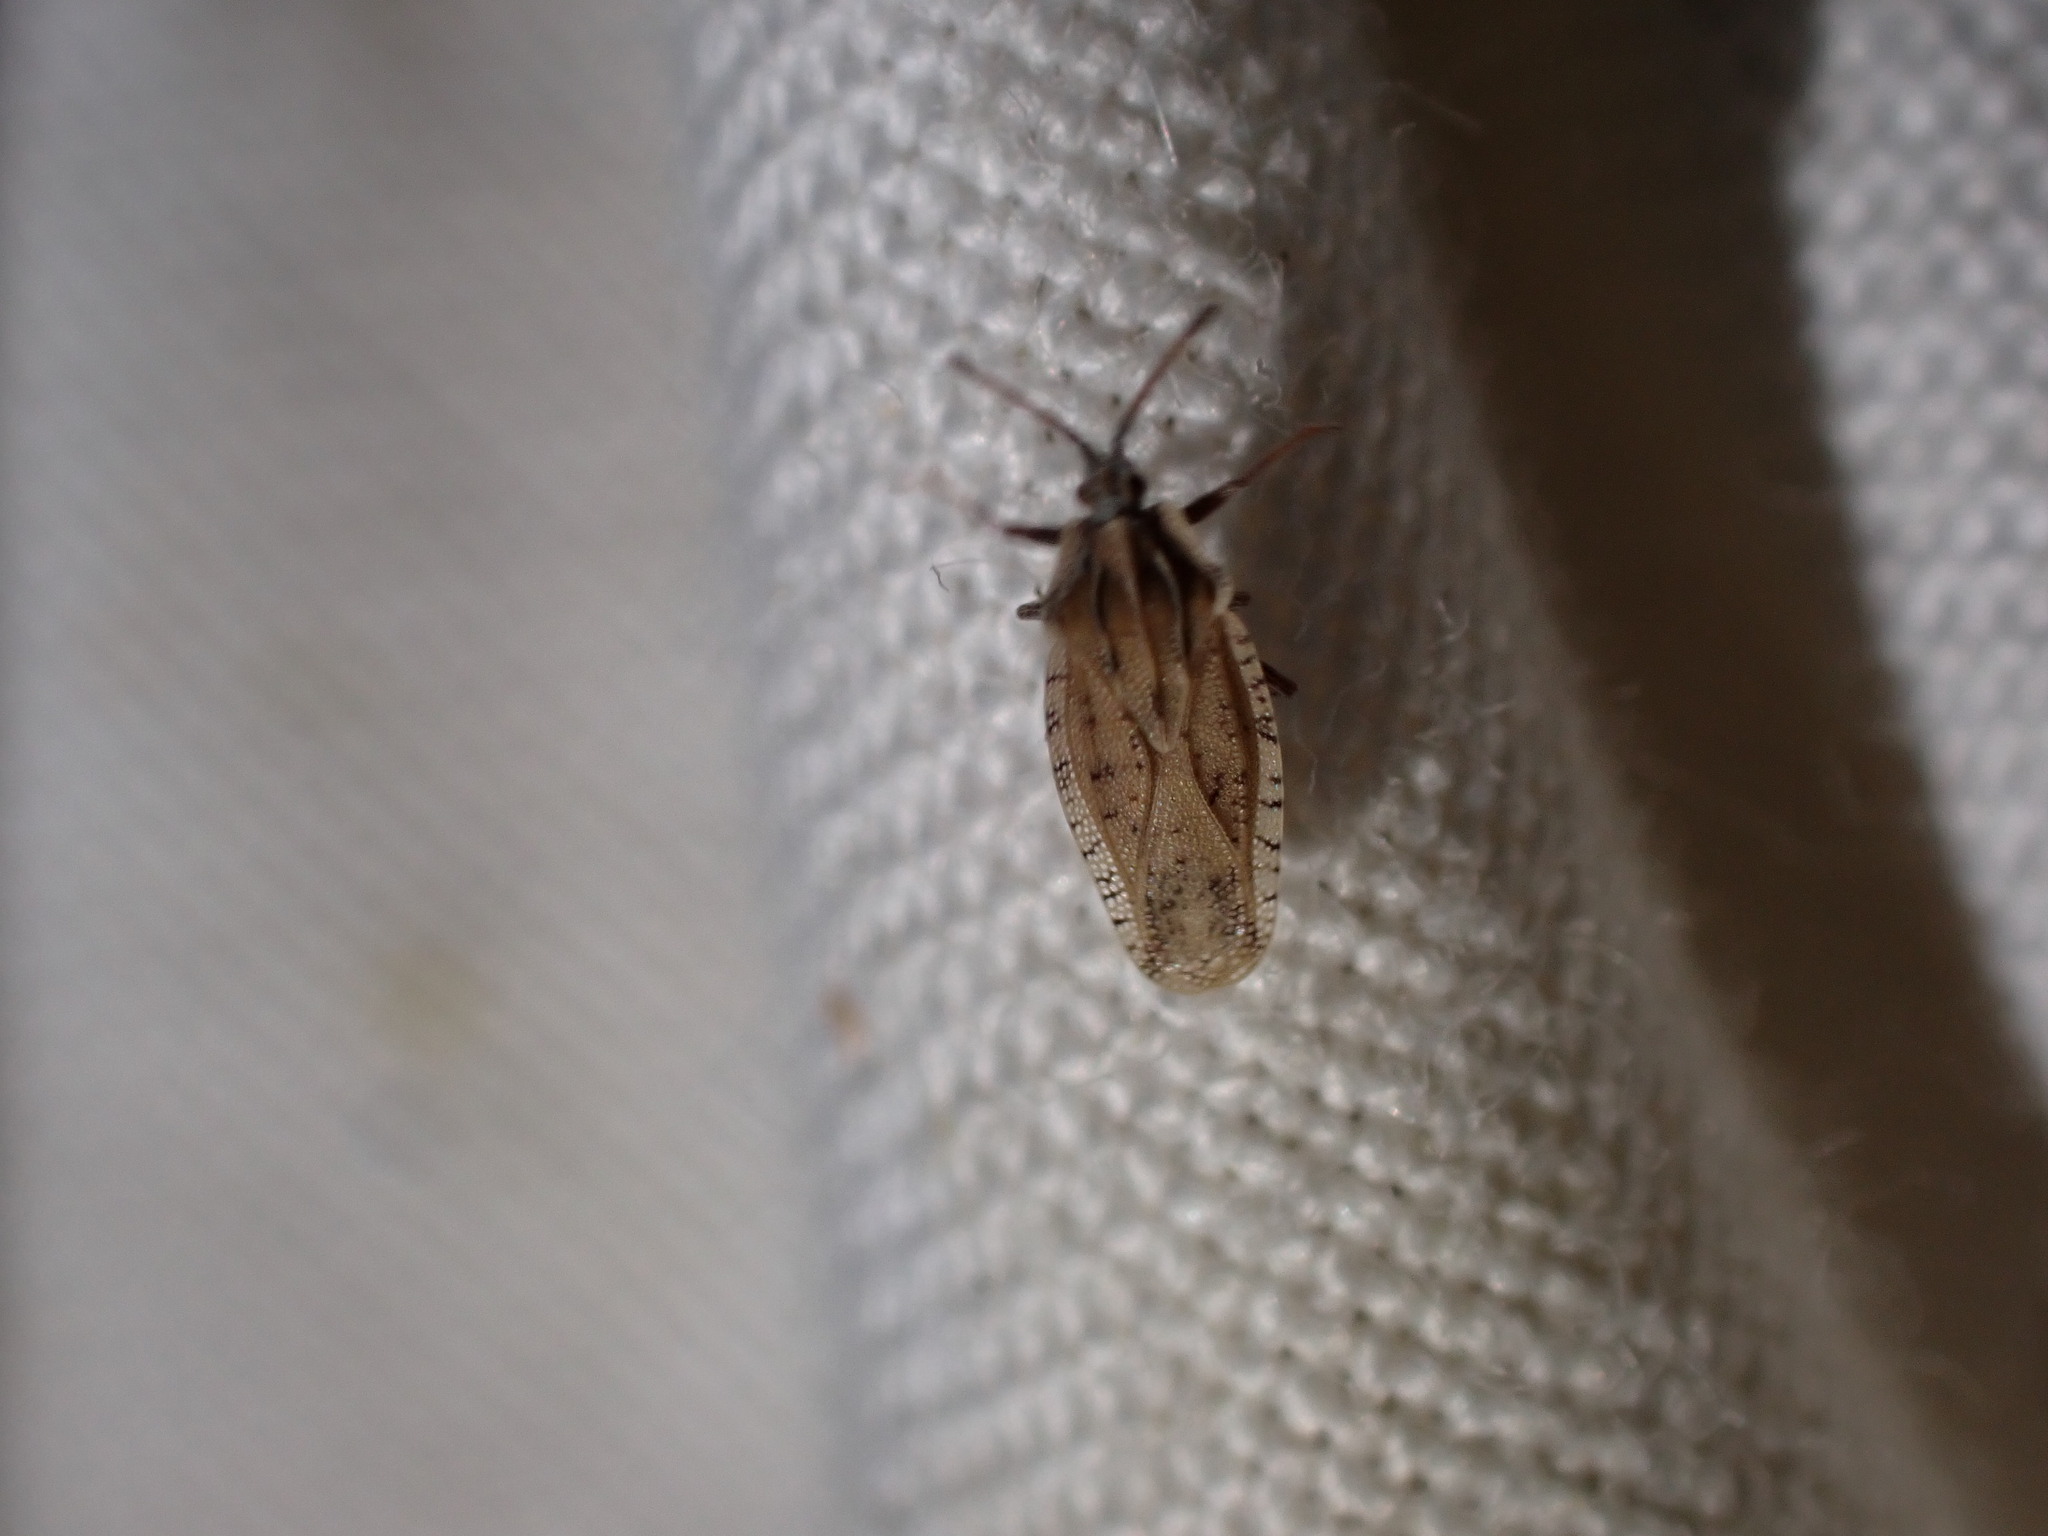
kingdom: Animalia
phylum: Arthropoda
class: Insecta
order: Hemiptera
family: Tingidae
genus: Tingis
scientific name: Tingis auriculata
